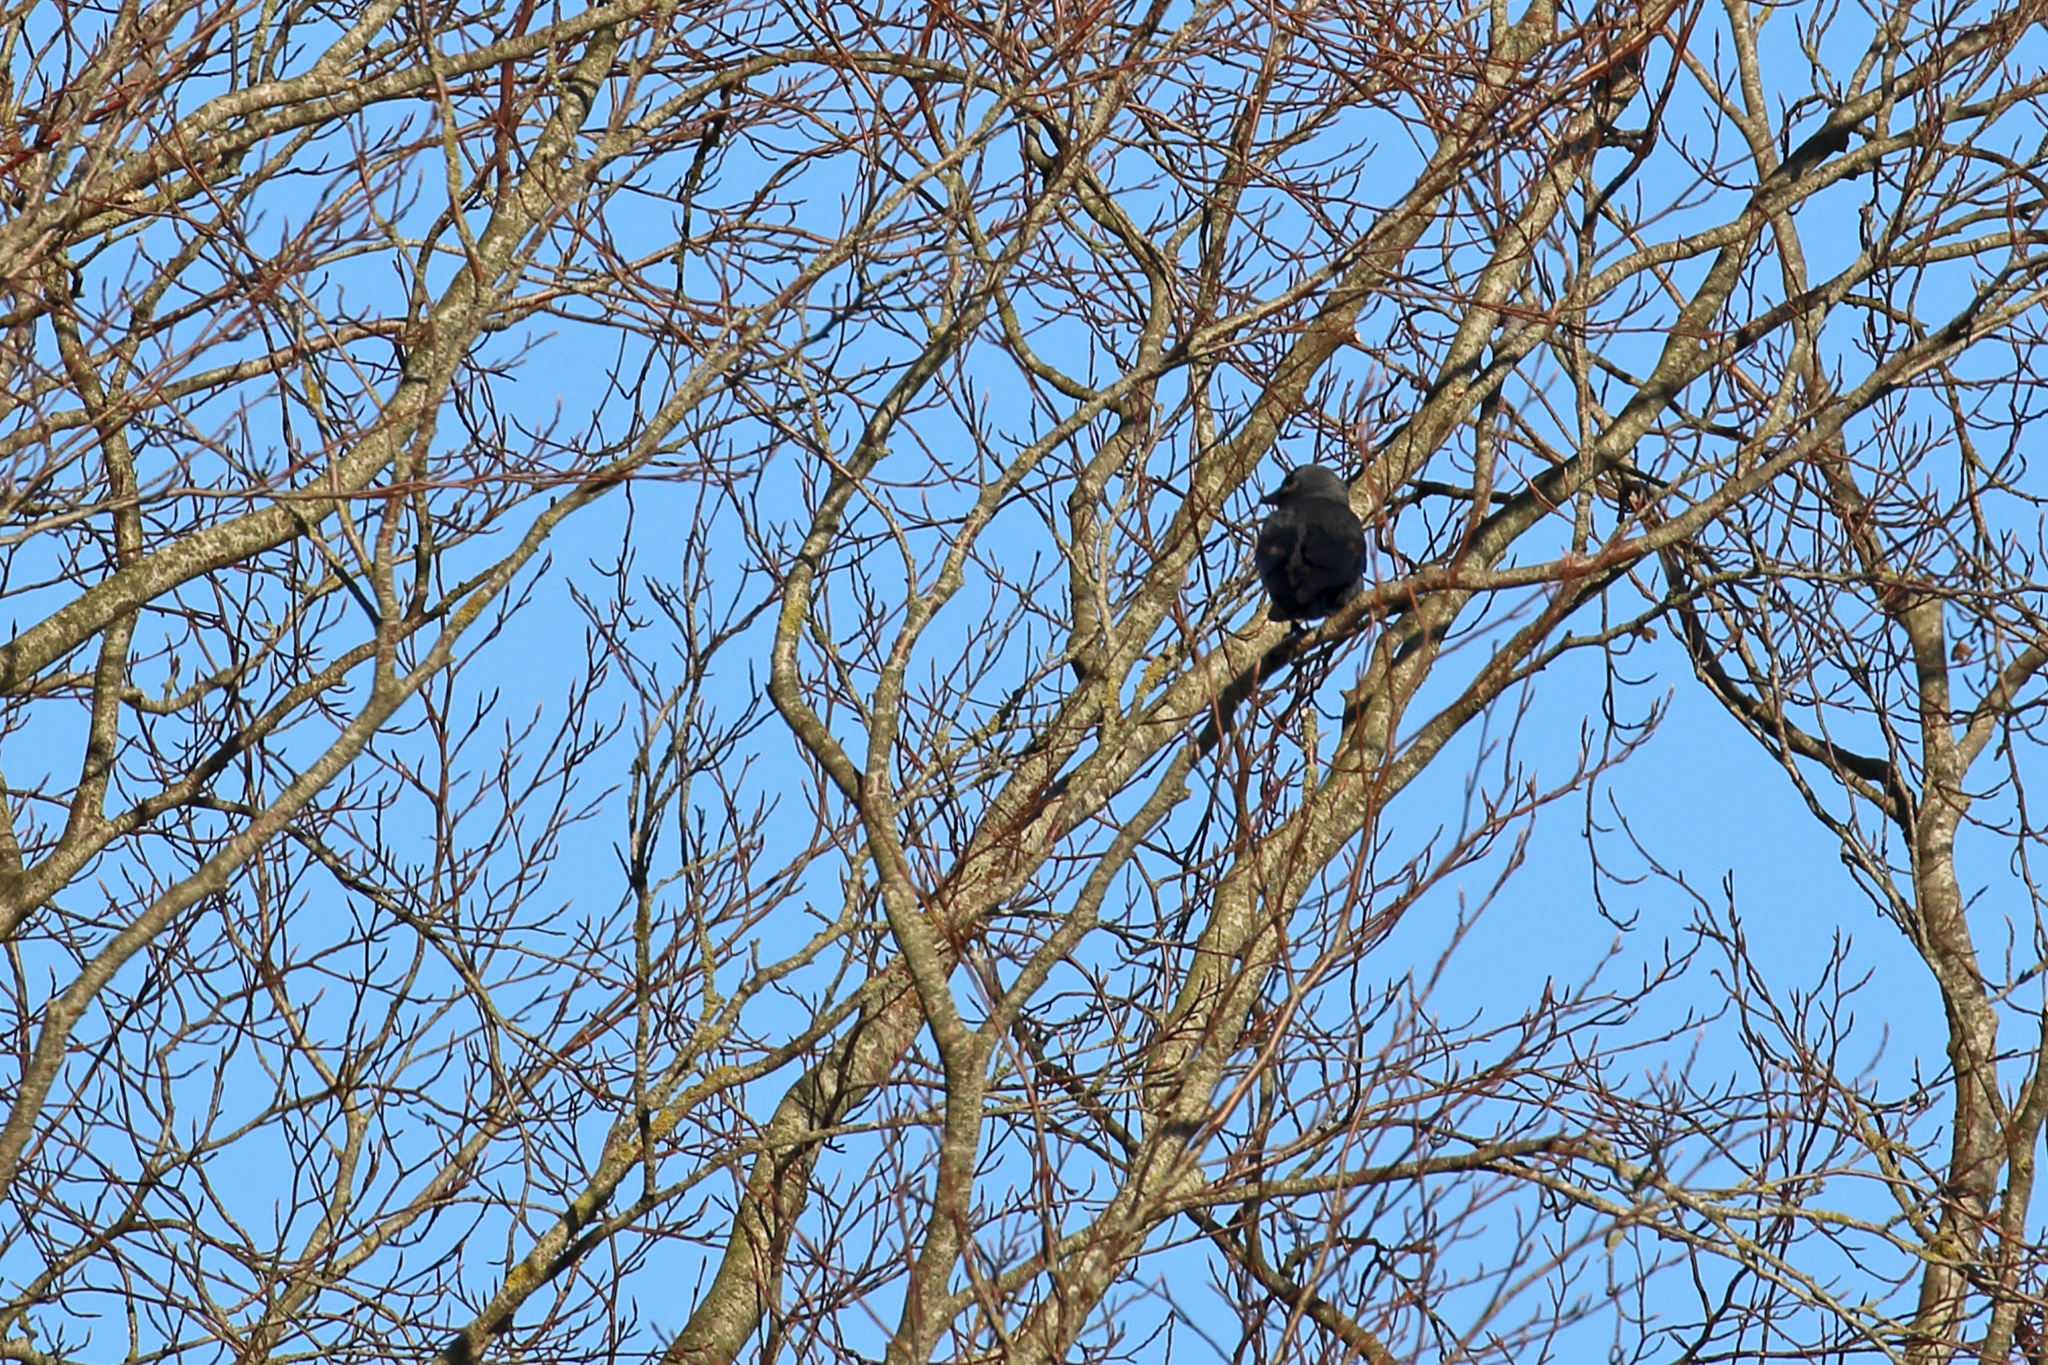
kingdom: Animalia
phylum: Chordata
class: Aves
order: Passeriformes
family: Corvidae
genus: Coloeus
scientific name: Coloeus monedula
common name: Western jackdaw
